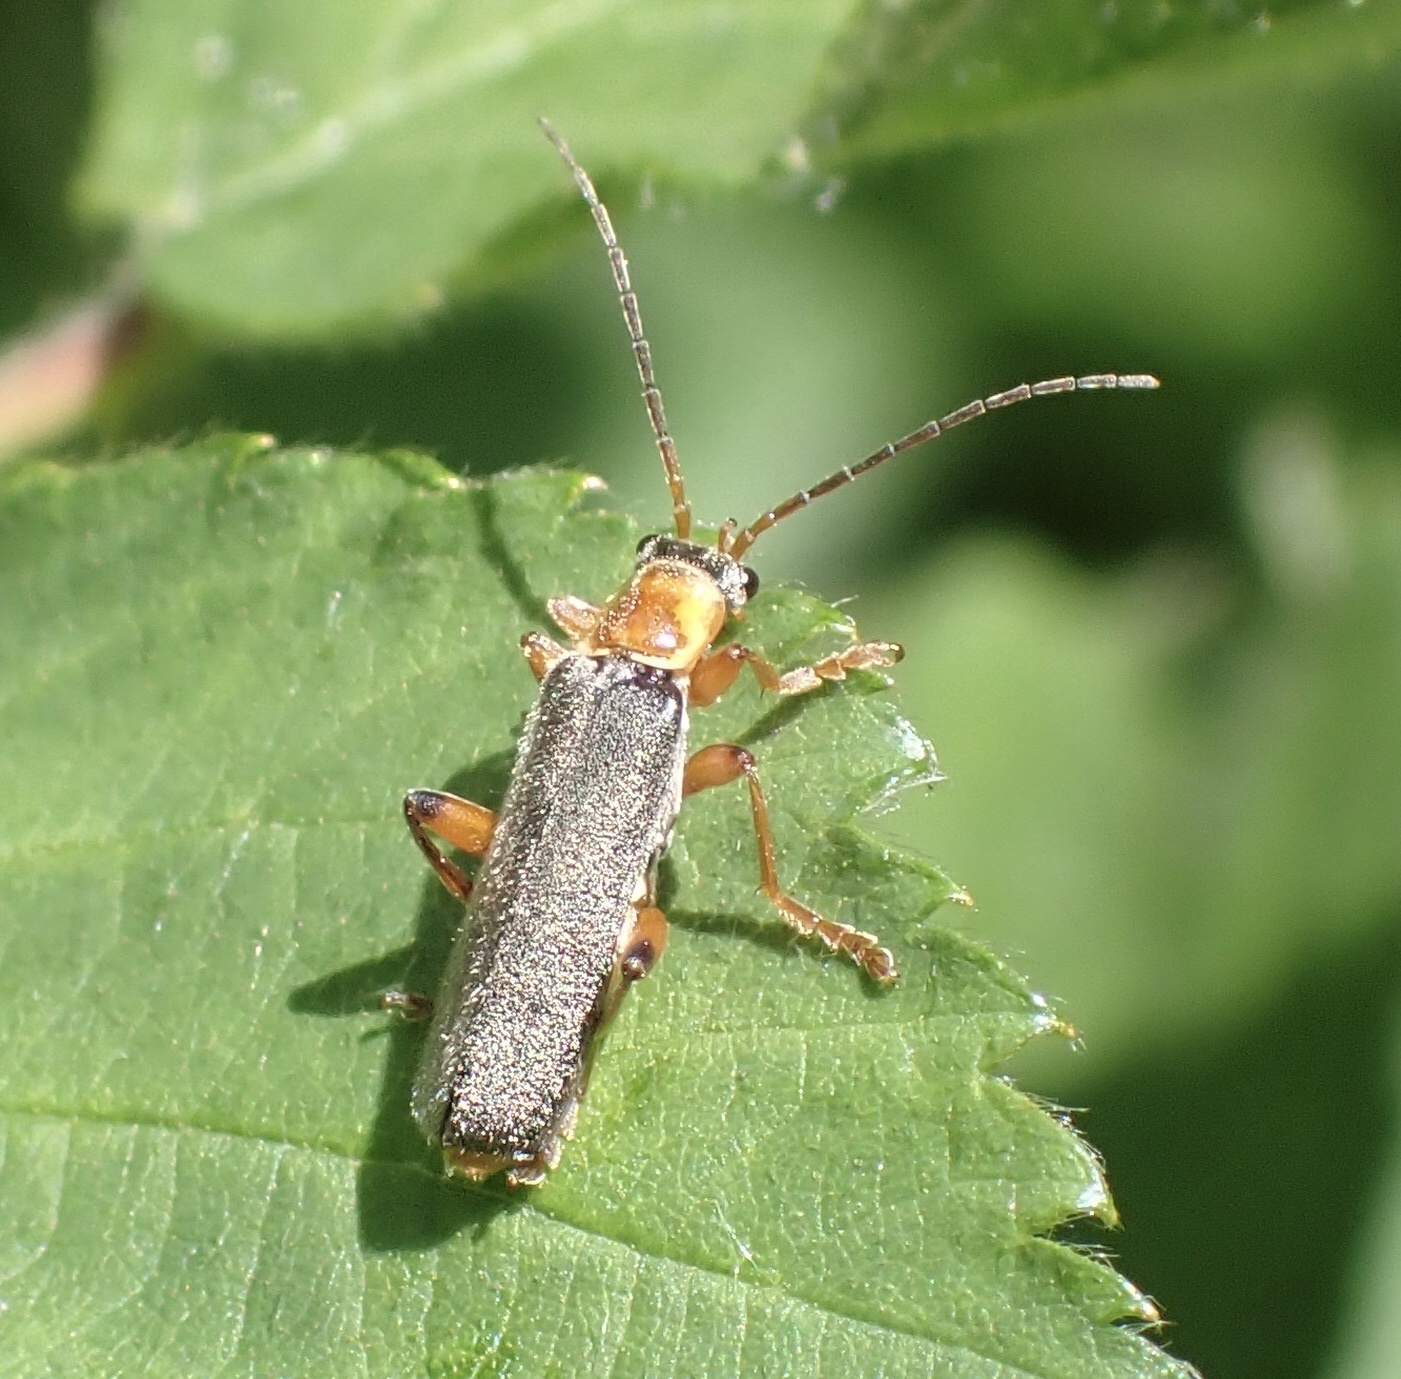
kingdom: Animalia
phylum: Arthropoda
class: Insecta
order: Coleoptera
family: Cantharidae
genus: Cantharis
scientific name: Cantharis nigricans
